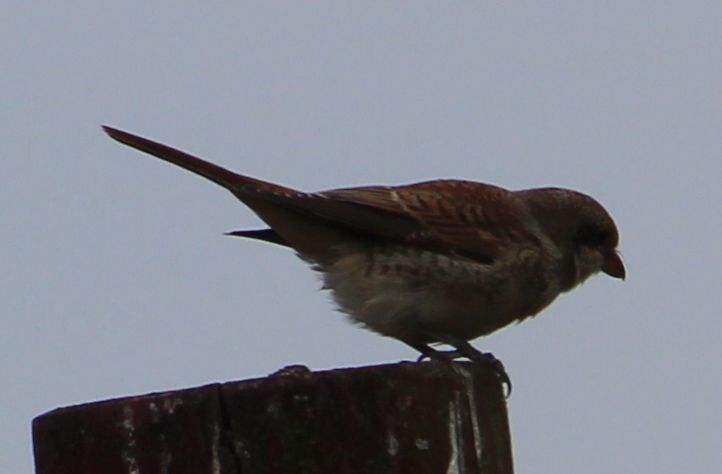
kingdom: Animalia
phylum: Chordata
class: Aves
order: Passeriformes
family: Laniidae
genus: Lanius
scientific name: Lanius collurio
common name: Red-backed shrike
